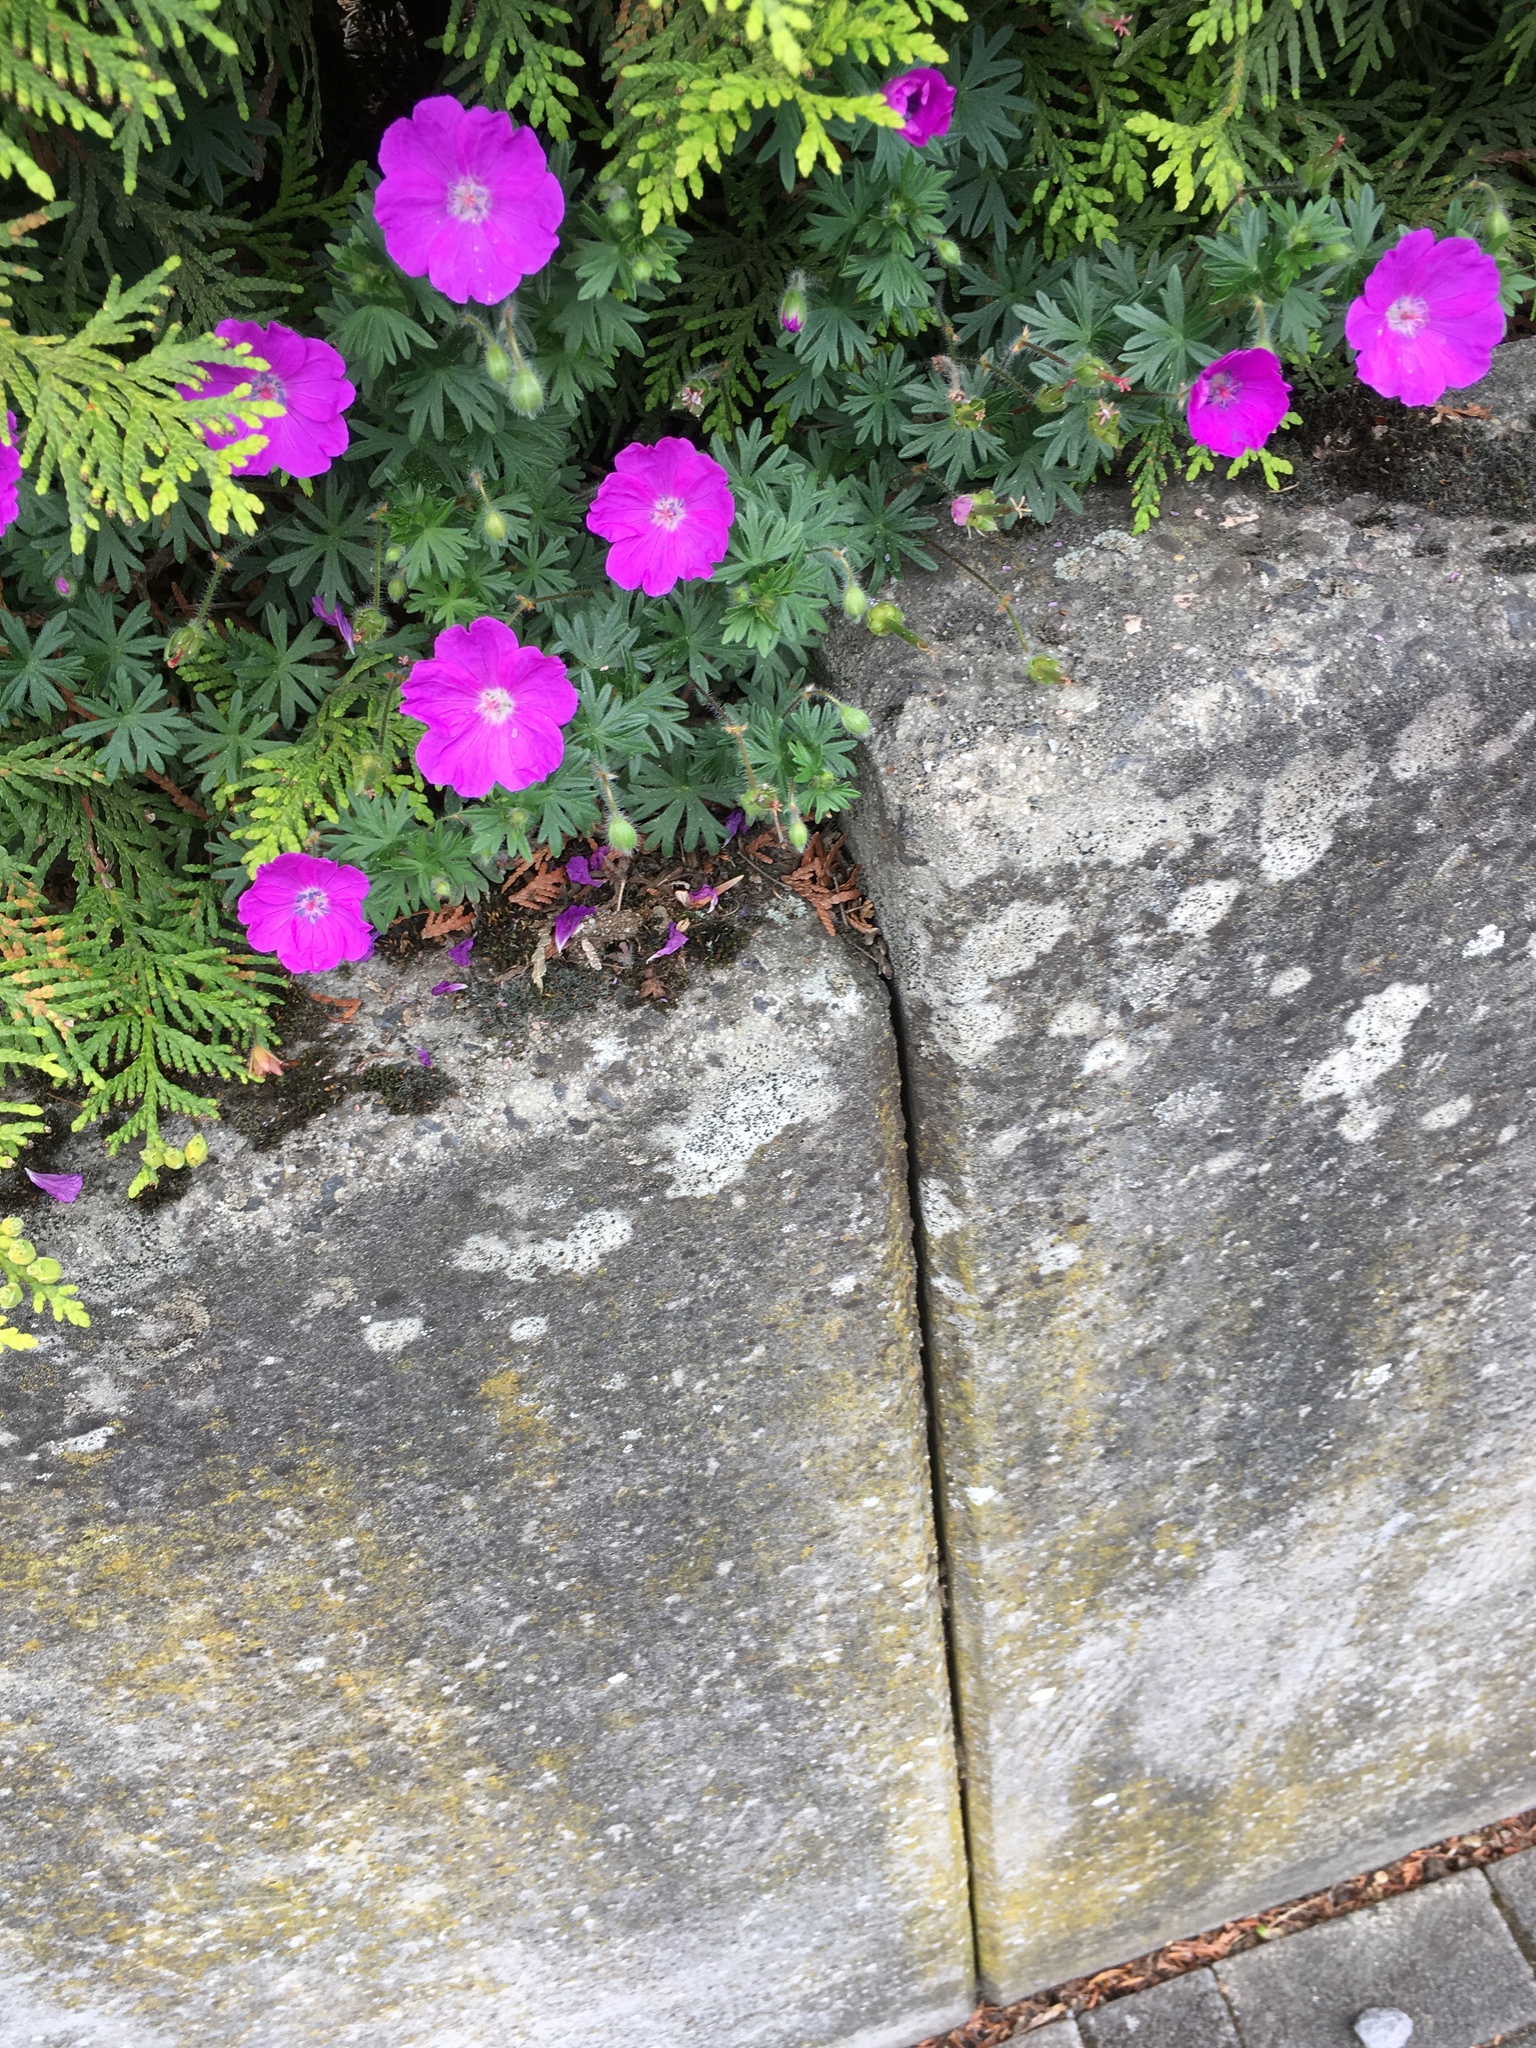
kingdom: Plantae
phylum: Tracheophyta
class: Magnoliopsida
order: Geraniales
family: Geraniaceae
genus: Geranium
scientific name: Geranium sanguineum
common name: Bloody crane's-bill
